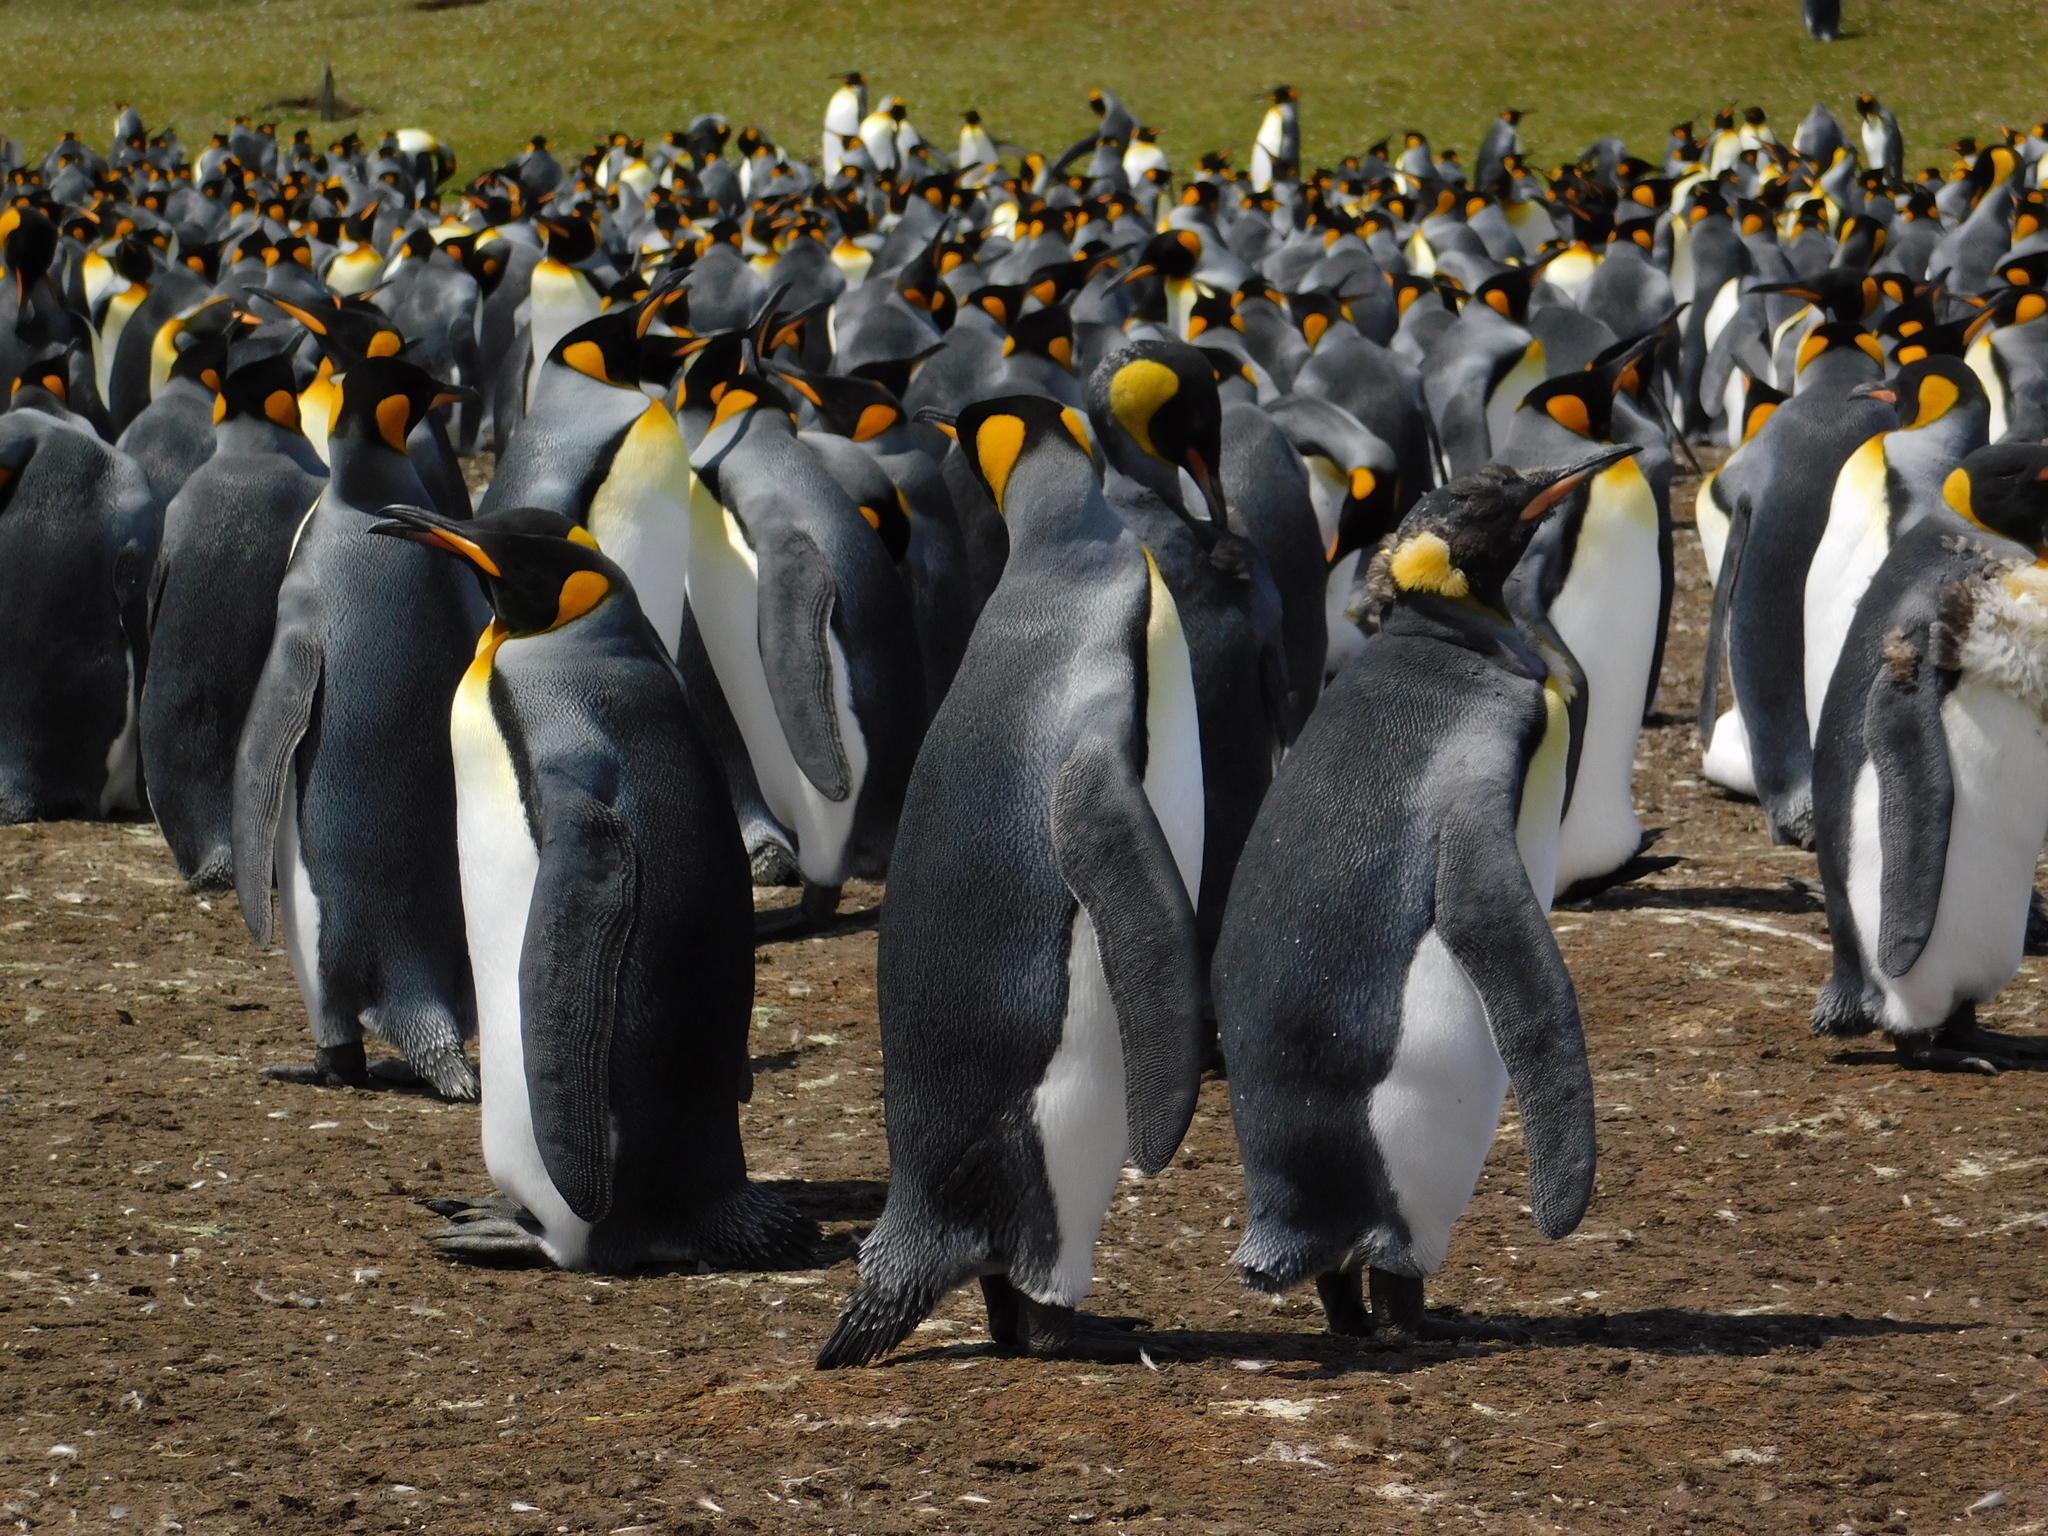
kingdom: Animalia
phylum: Chordata
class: Aves
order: Sphenisciformes
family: Spheniscidae
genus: Aptenodytes
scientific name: Aptenodytes patagonicus
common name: King penguin
